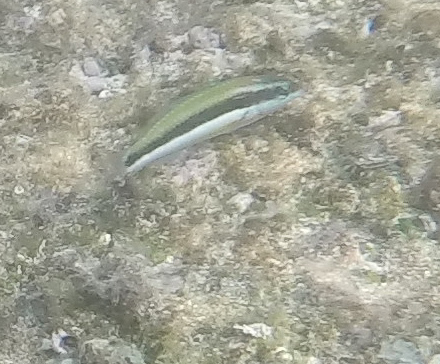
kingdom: Animalia
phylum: Chordata
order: Perciformes
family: Labridae
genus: Gomphosus
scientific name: Gomphosus varius
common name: Bird wrasse
